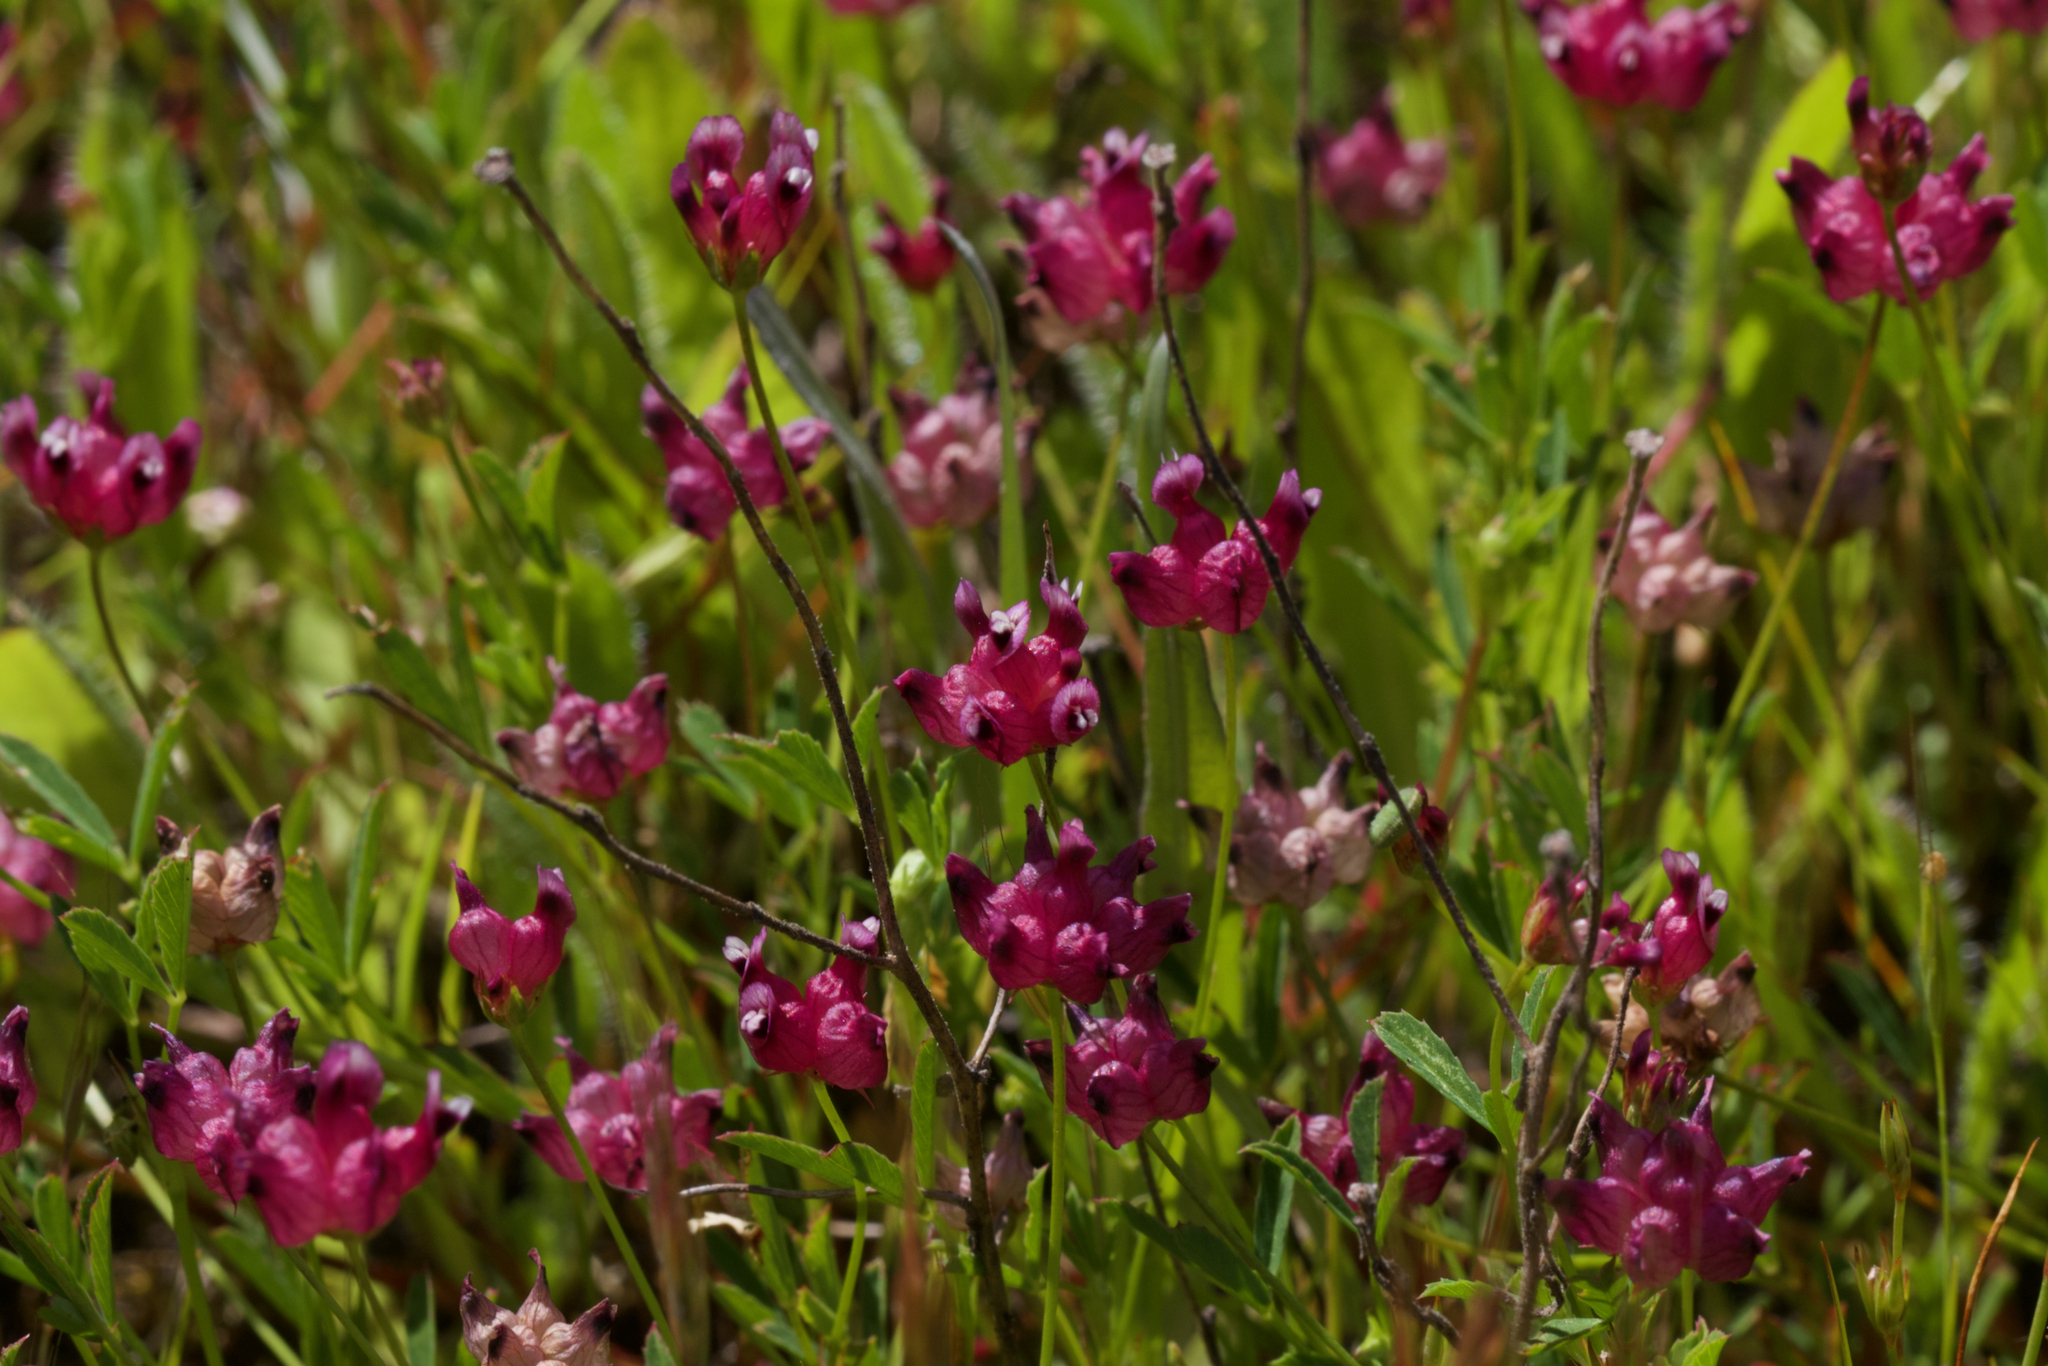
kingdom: Plantae
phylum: Tracheophyta
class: Magnoliopsida
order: Fabales
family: Fabaceae
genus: Trifolium
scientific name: Trifolium depauperatum
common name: Poverty clover
